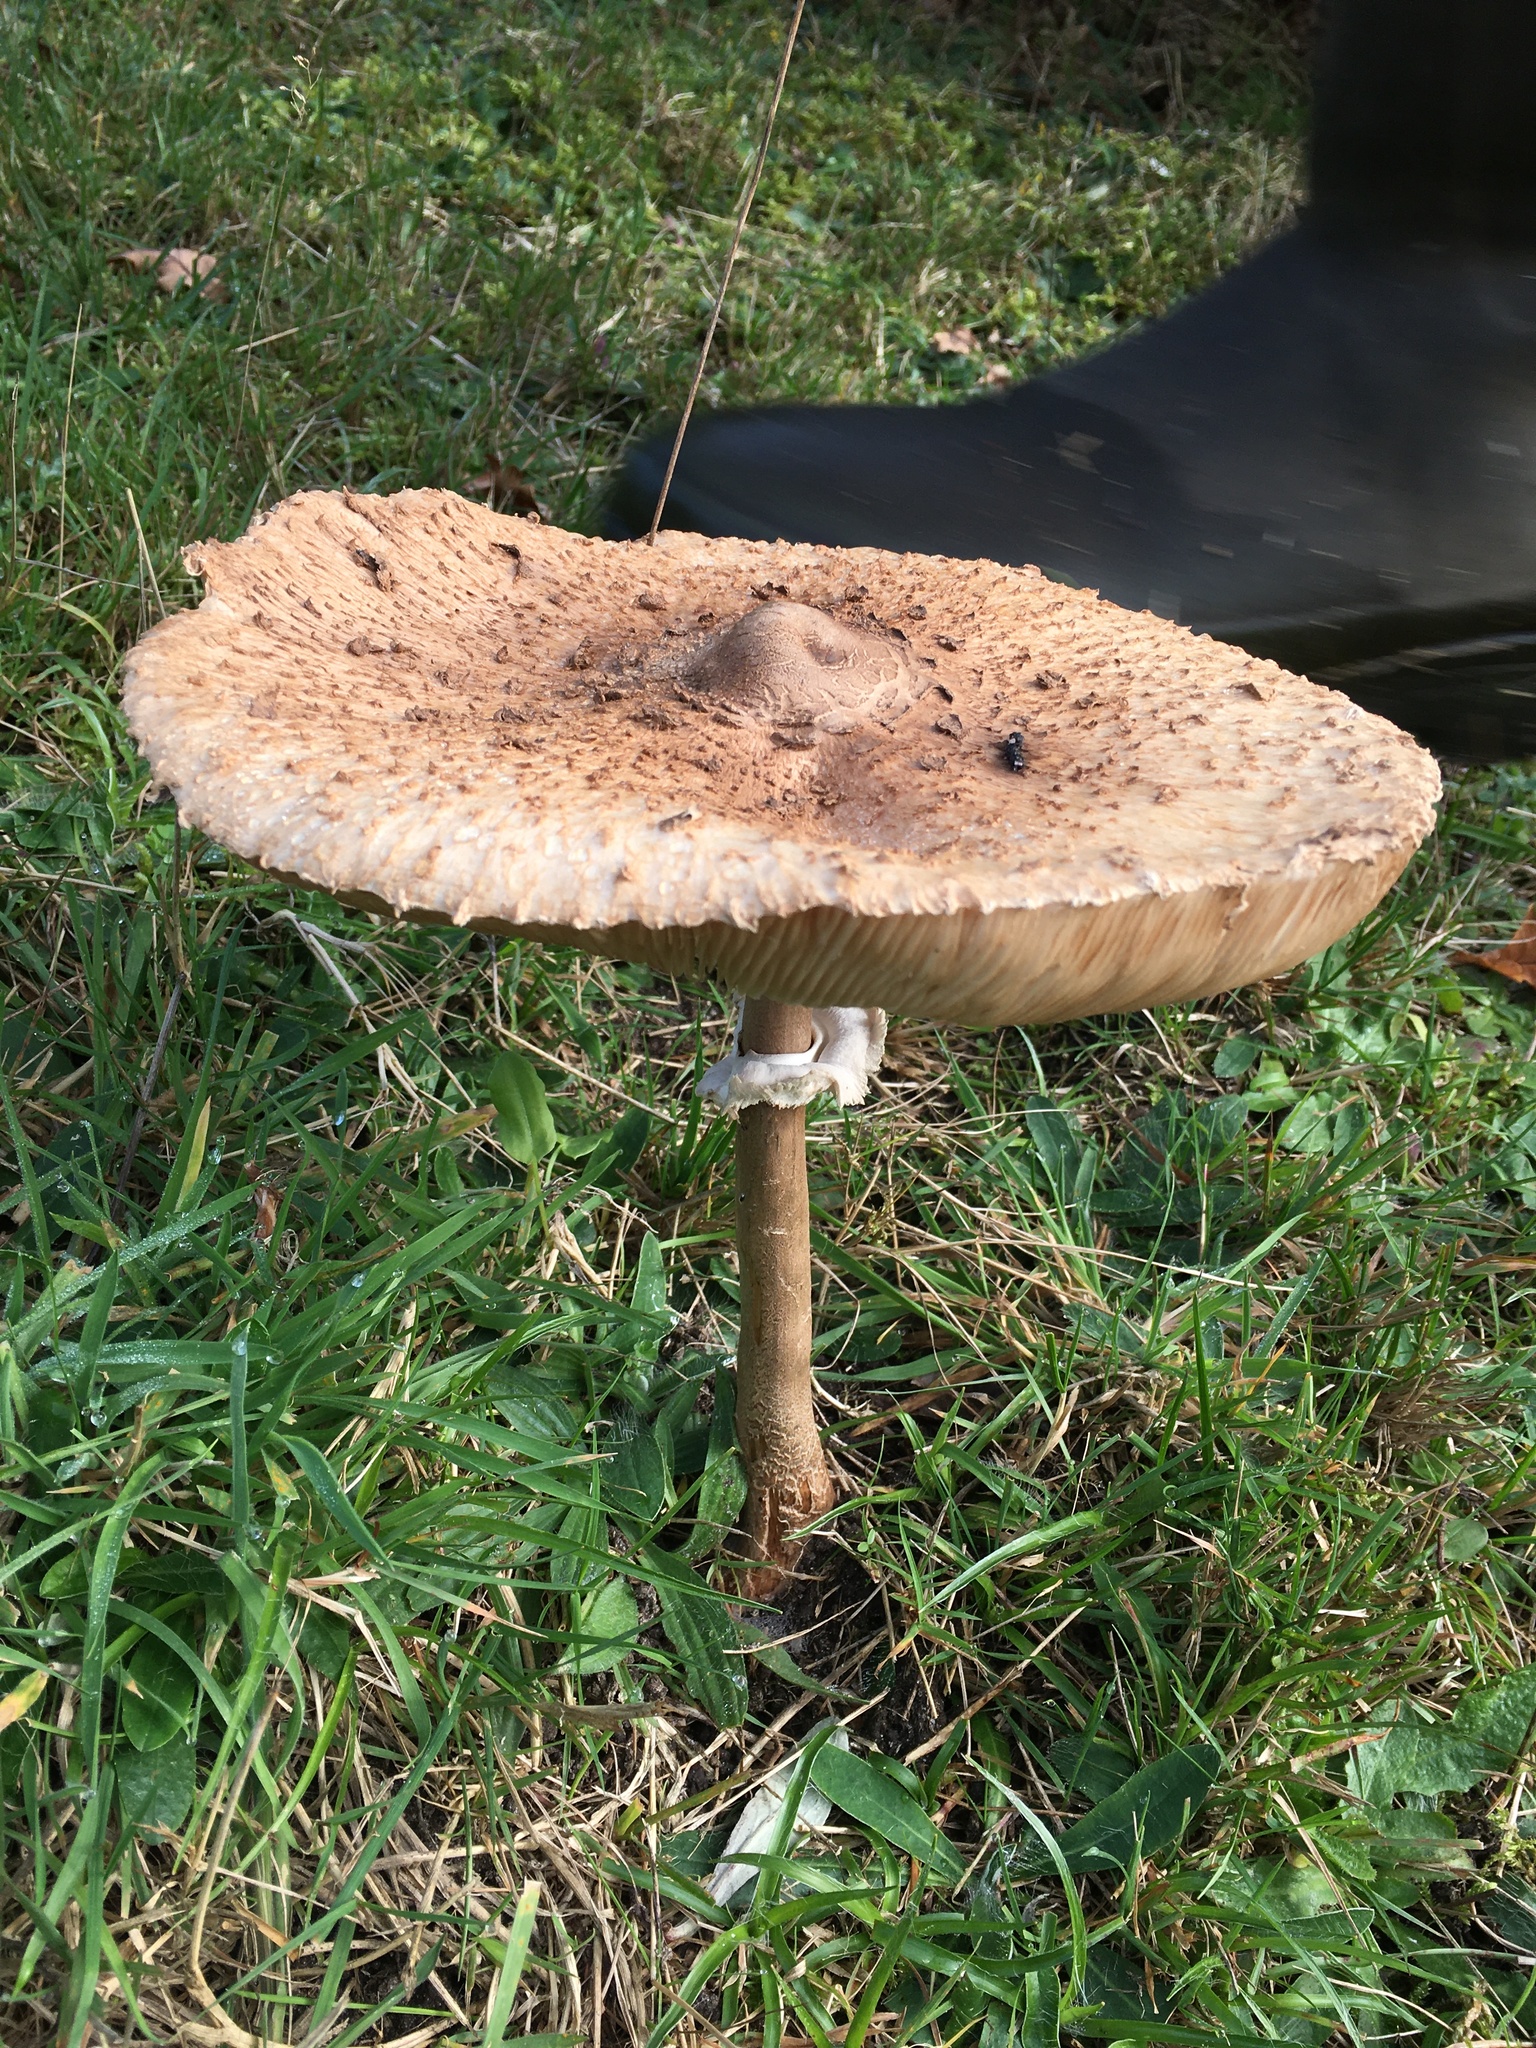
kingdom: Fungi
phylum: Basidiomycota
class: Agaricomycetes
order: Agaricales
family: Agaricaceae
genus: Macrolepiota
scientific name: Macrolepiota procera
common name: Parasol
